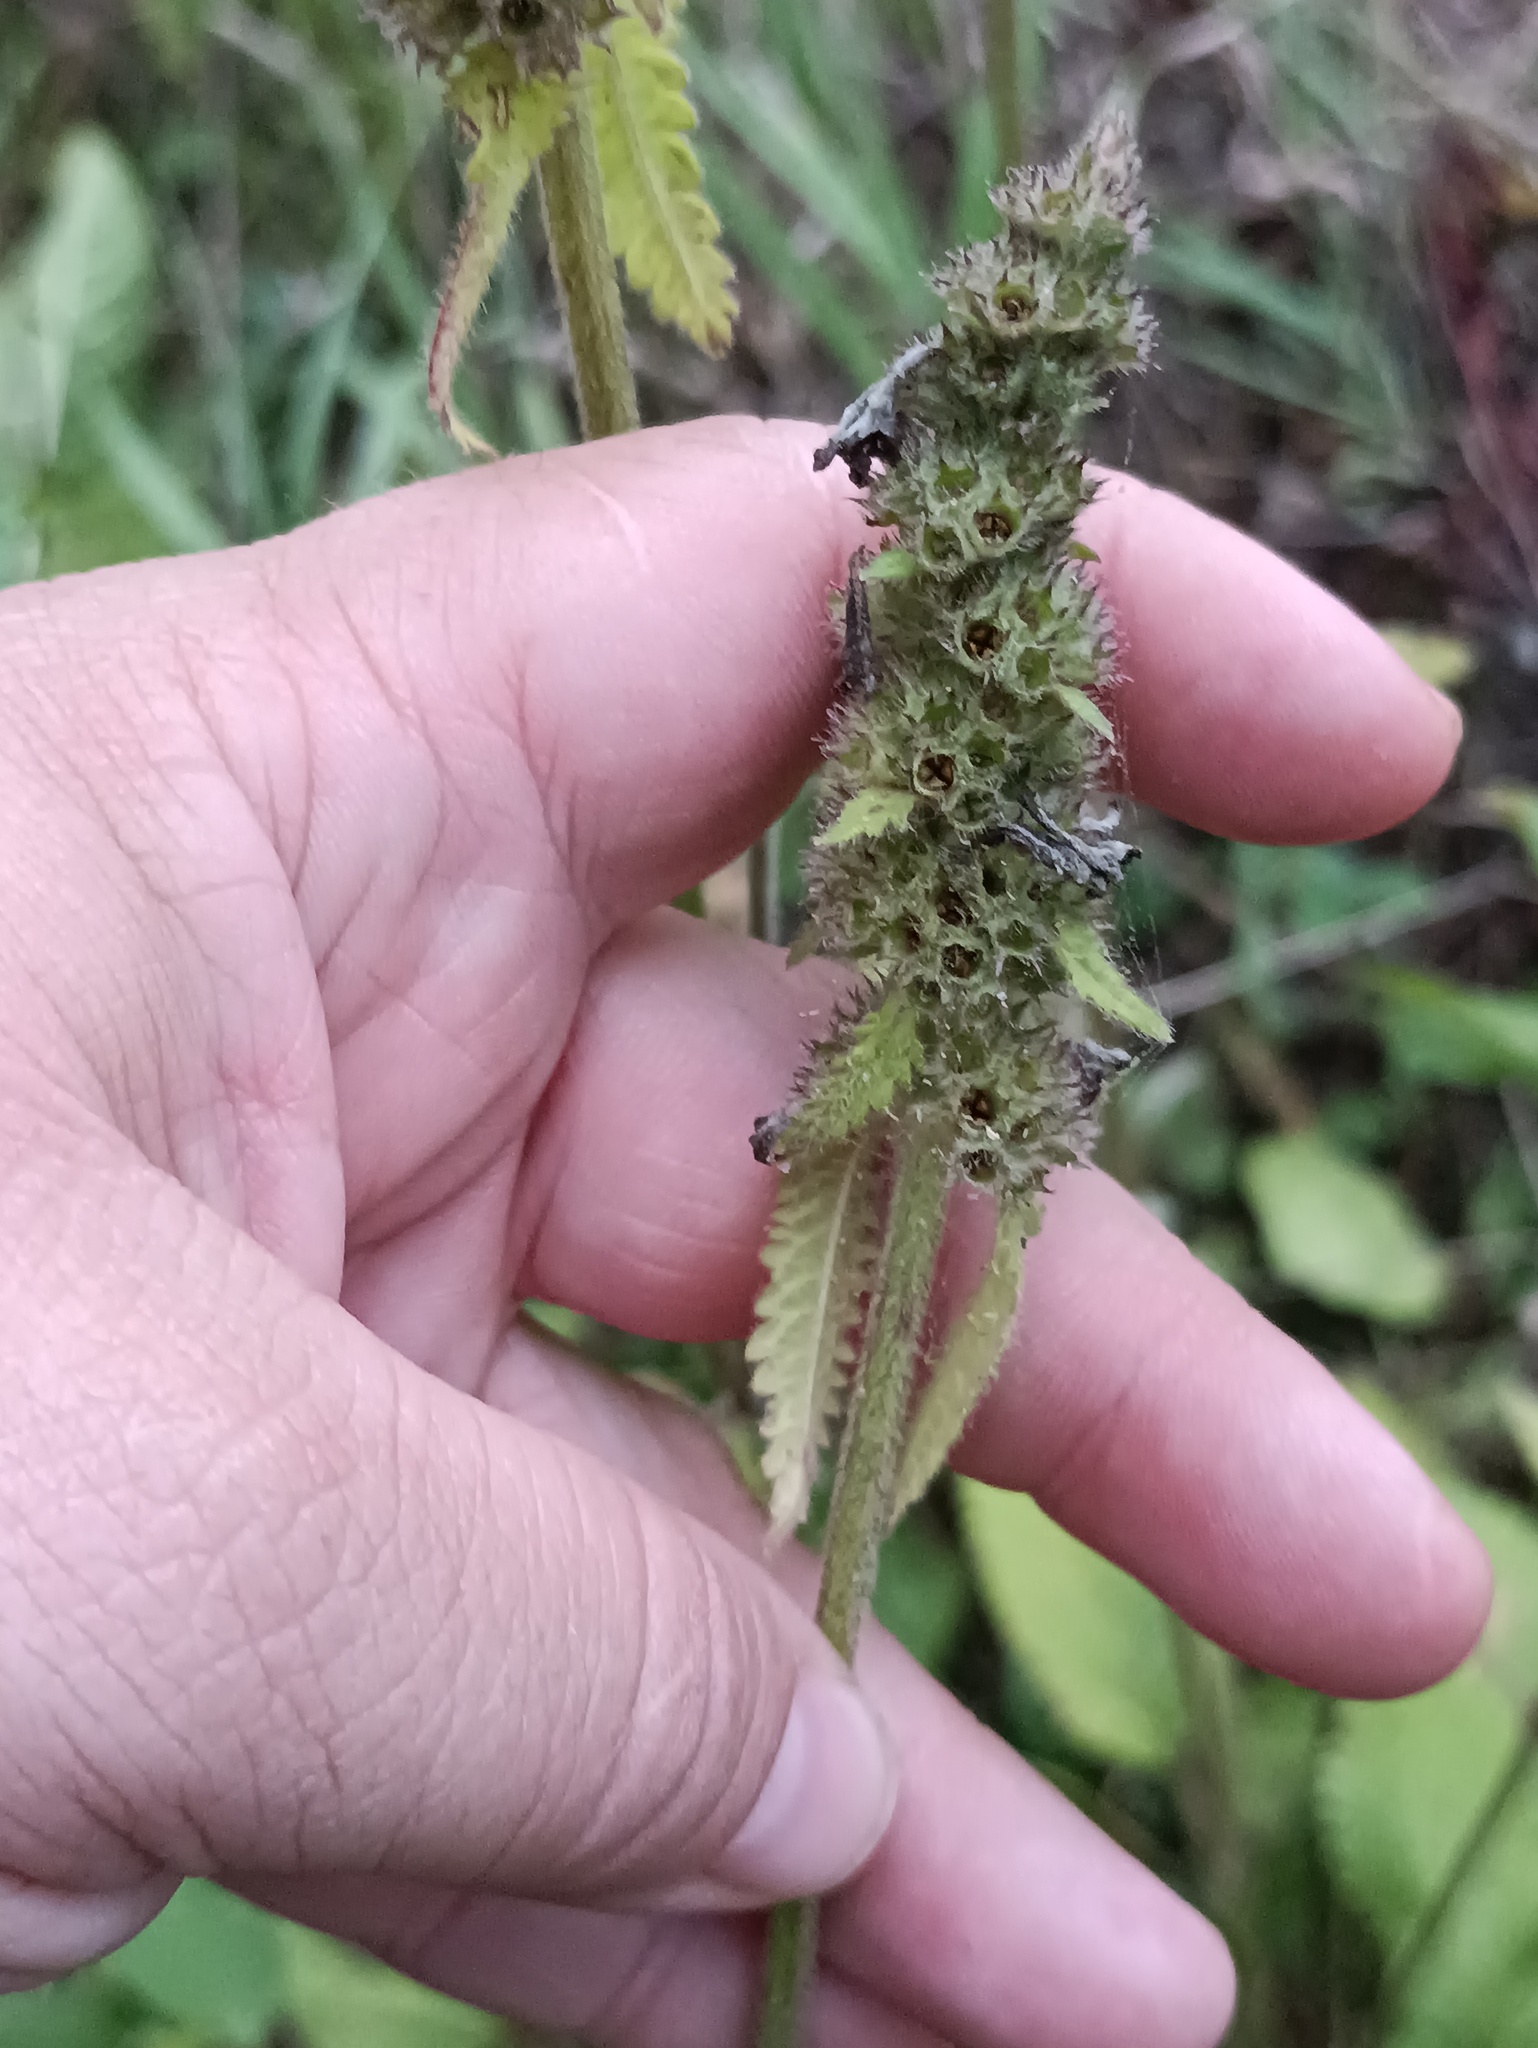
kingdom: Plantae
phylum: Tracheophyta
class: Magnoliopsida
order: Lamiales
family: Lamiaceae
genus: Betonica
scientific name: Betonica officinalis
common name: Bishop's-wort
